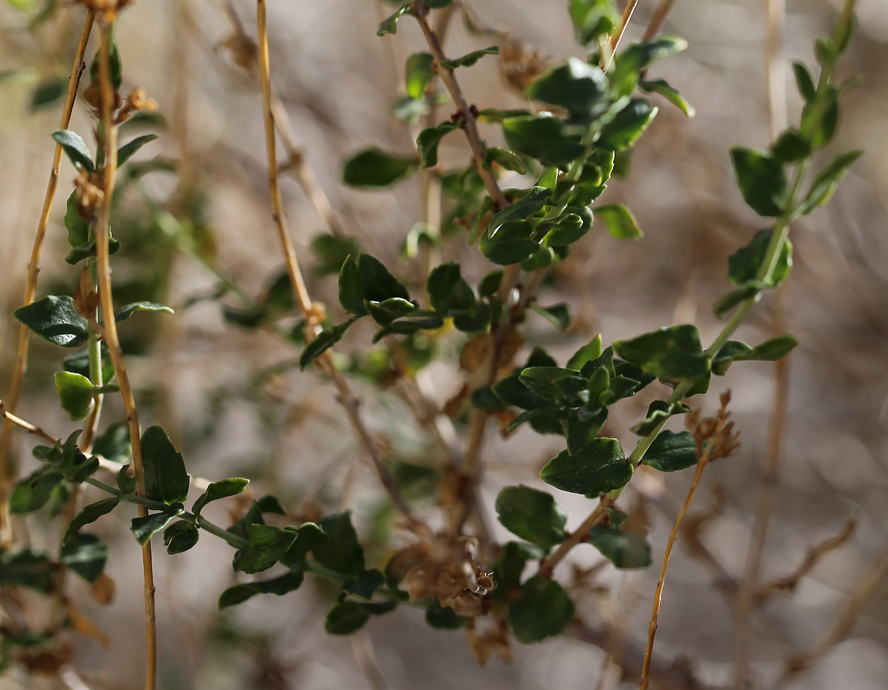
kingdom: Plantae
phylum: Tracheophyta
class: Magnoliopsida
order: Lamiales
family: Plantaginaceae
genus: Keckiella
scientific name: Keckiella rothrockii
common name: Rothrock's keckiella
